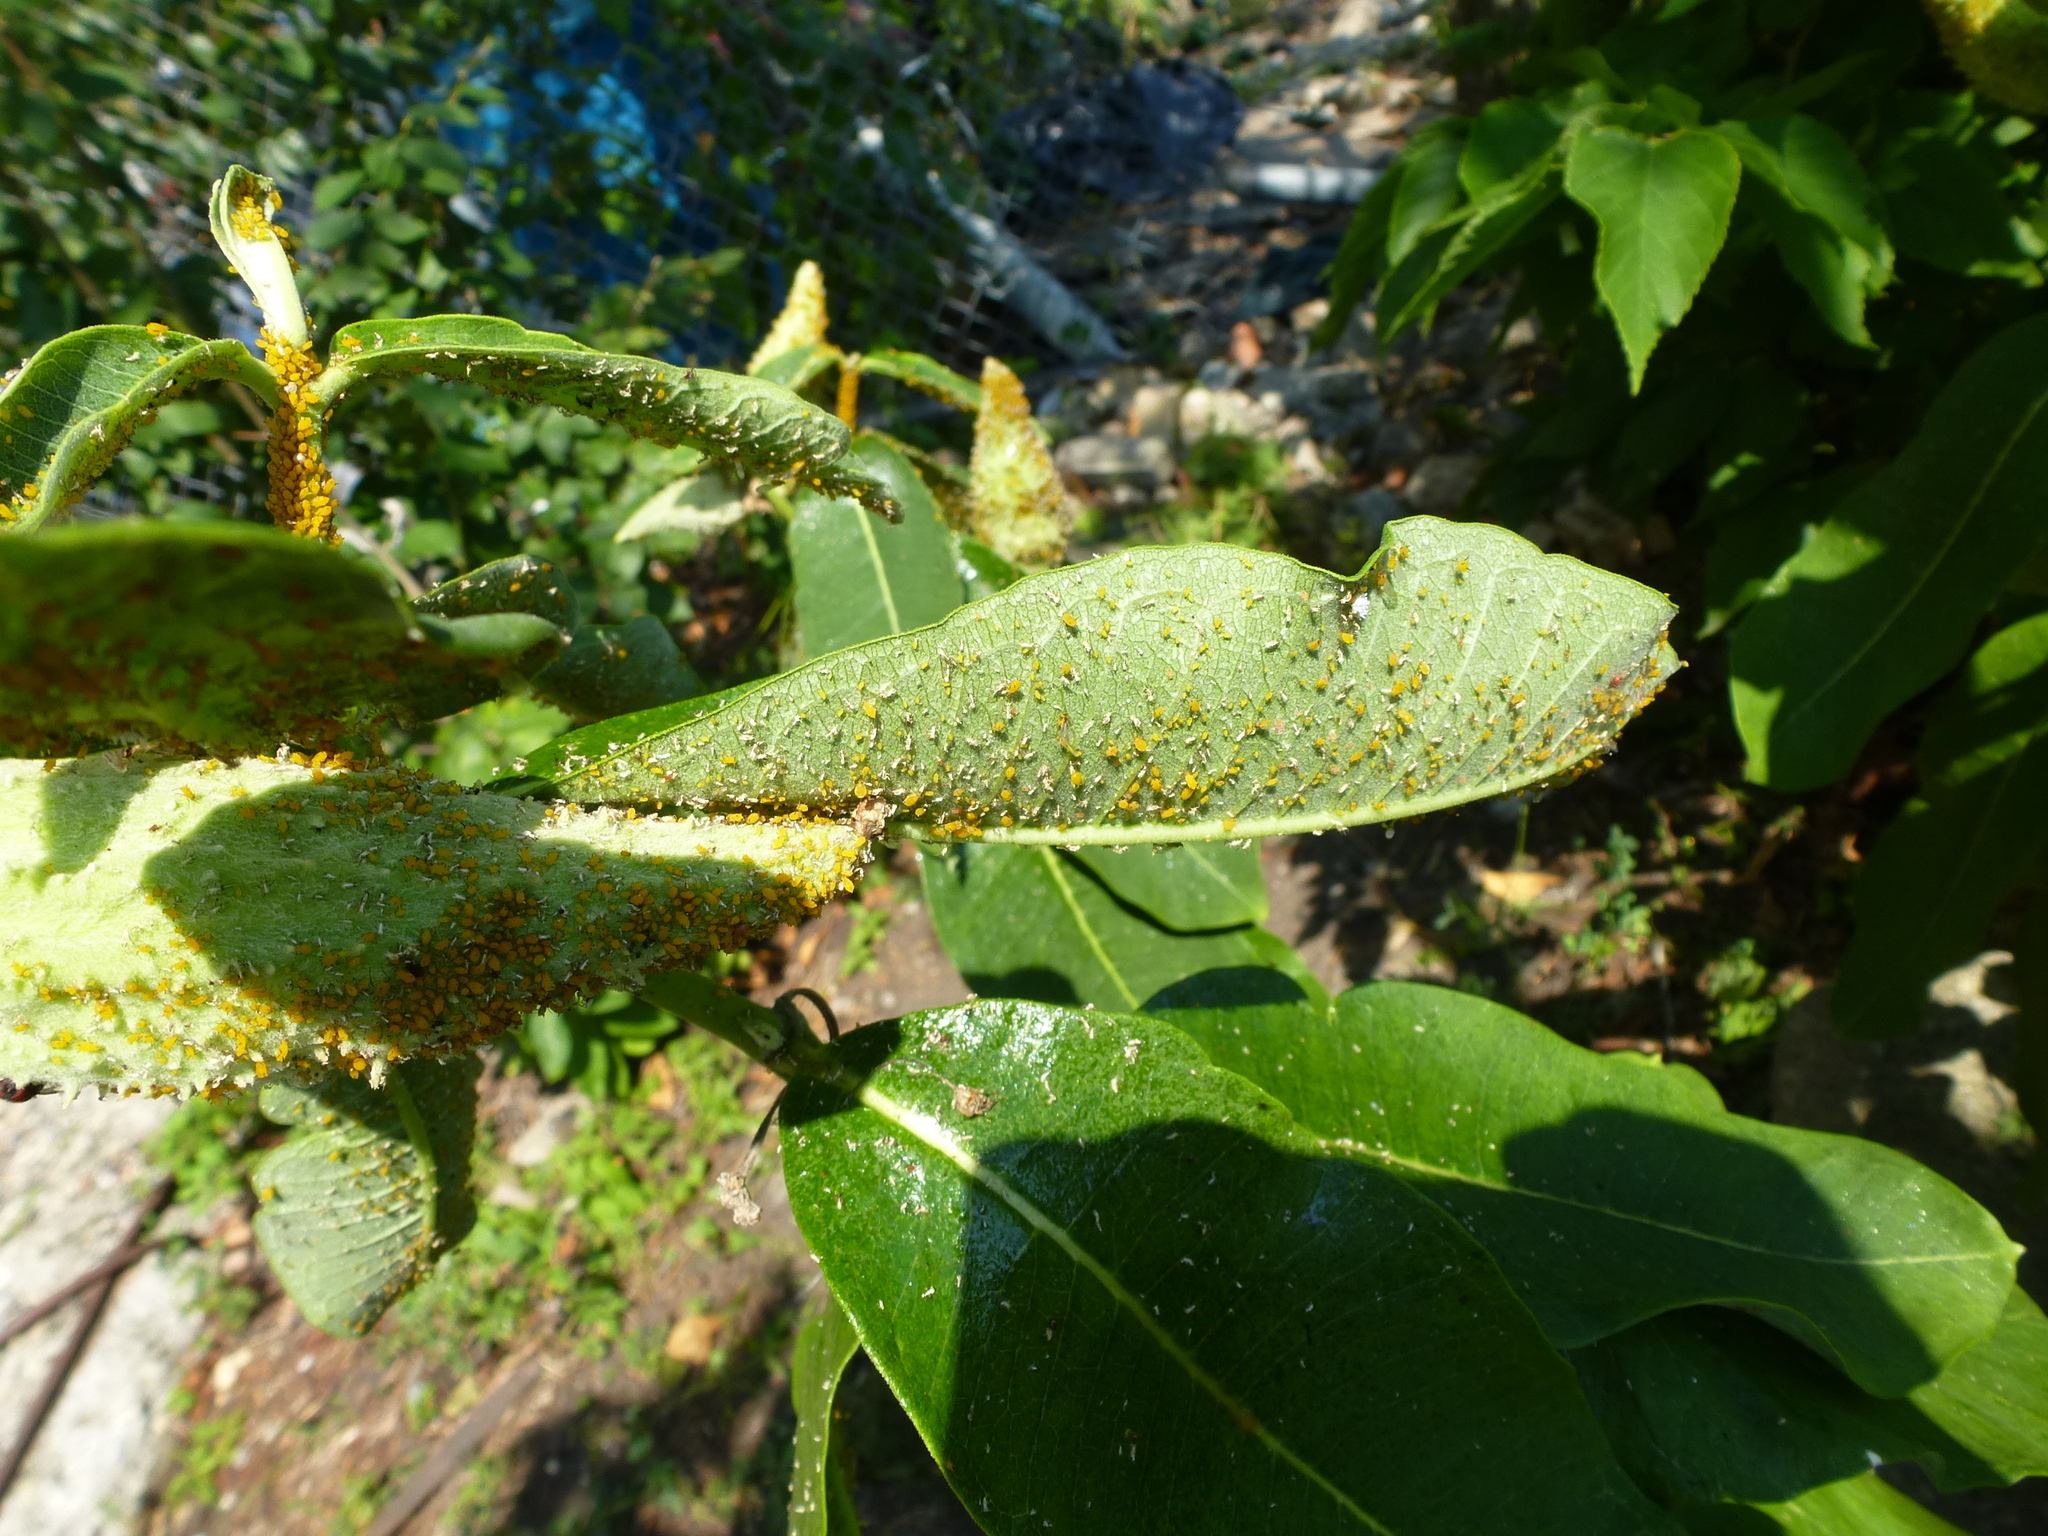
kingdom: Animalia
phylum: Arthropoda
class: Insecta
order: Hemiptera
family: Aphididae
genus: Aphis
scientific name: Aphis nerii
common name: Oleander aphid
